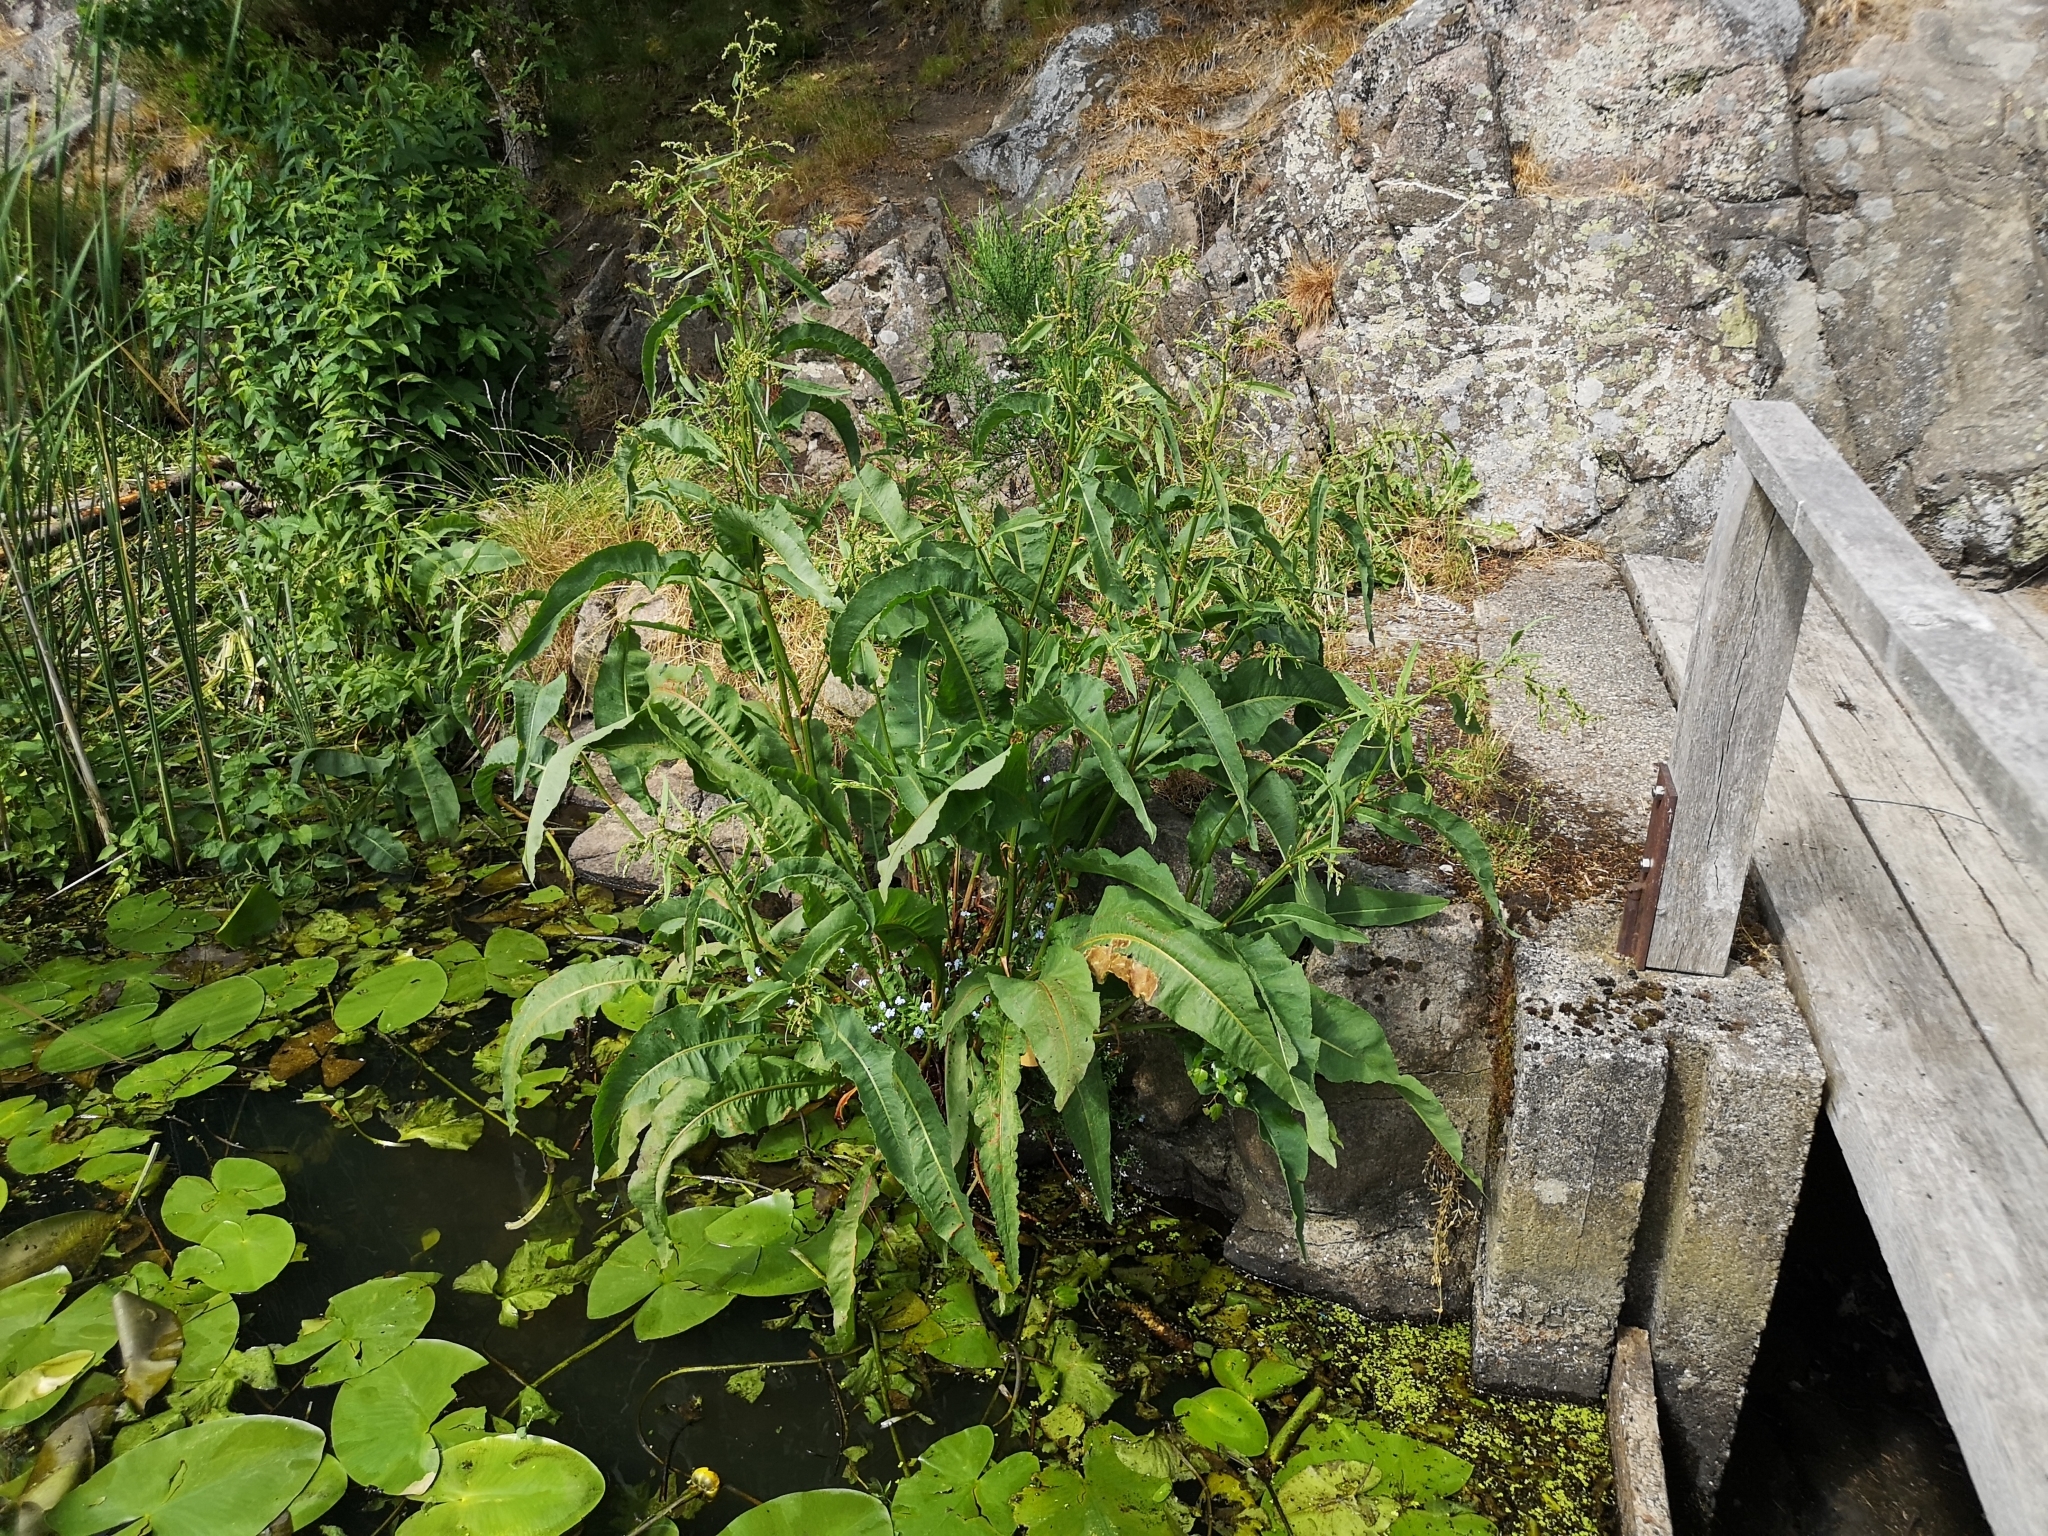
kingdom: Plantae
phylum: Tracheophyta
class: Magnoliopsida
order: Caryophyllales
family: Polygonaceae
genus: Rumex
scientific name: Rumex hydrolapathum
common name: Water dock
